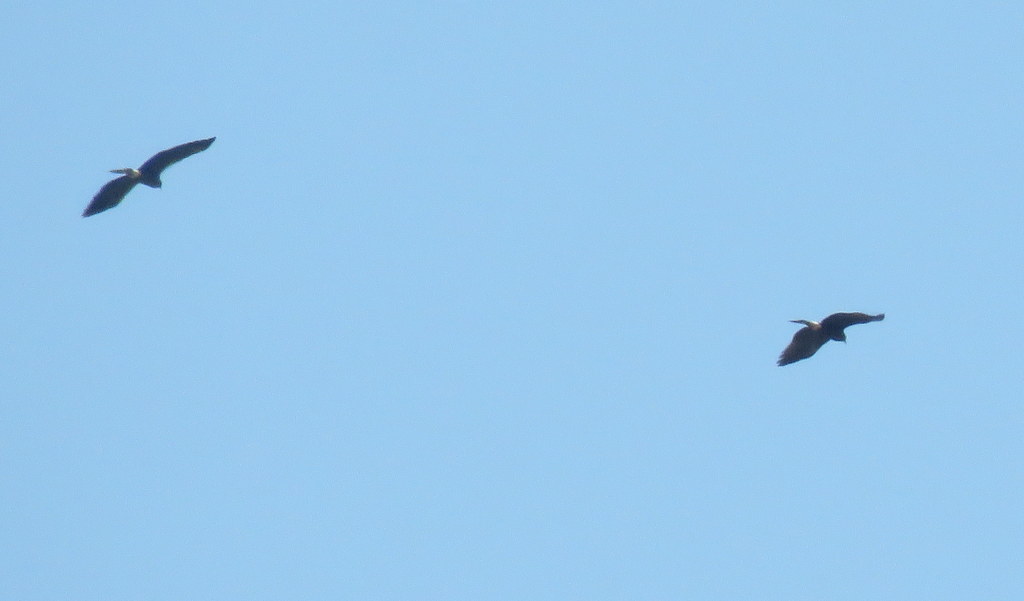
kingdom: Animalia
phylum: Chordata
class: Aves
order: Accipitriformes
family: Accipitridae
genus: Rostrhamus
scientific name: Rostrhamus sociabilis
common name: Snail kite
